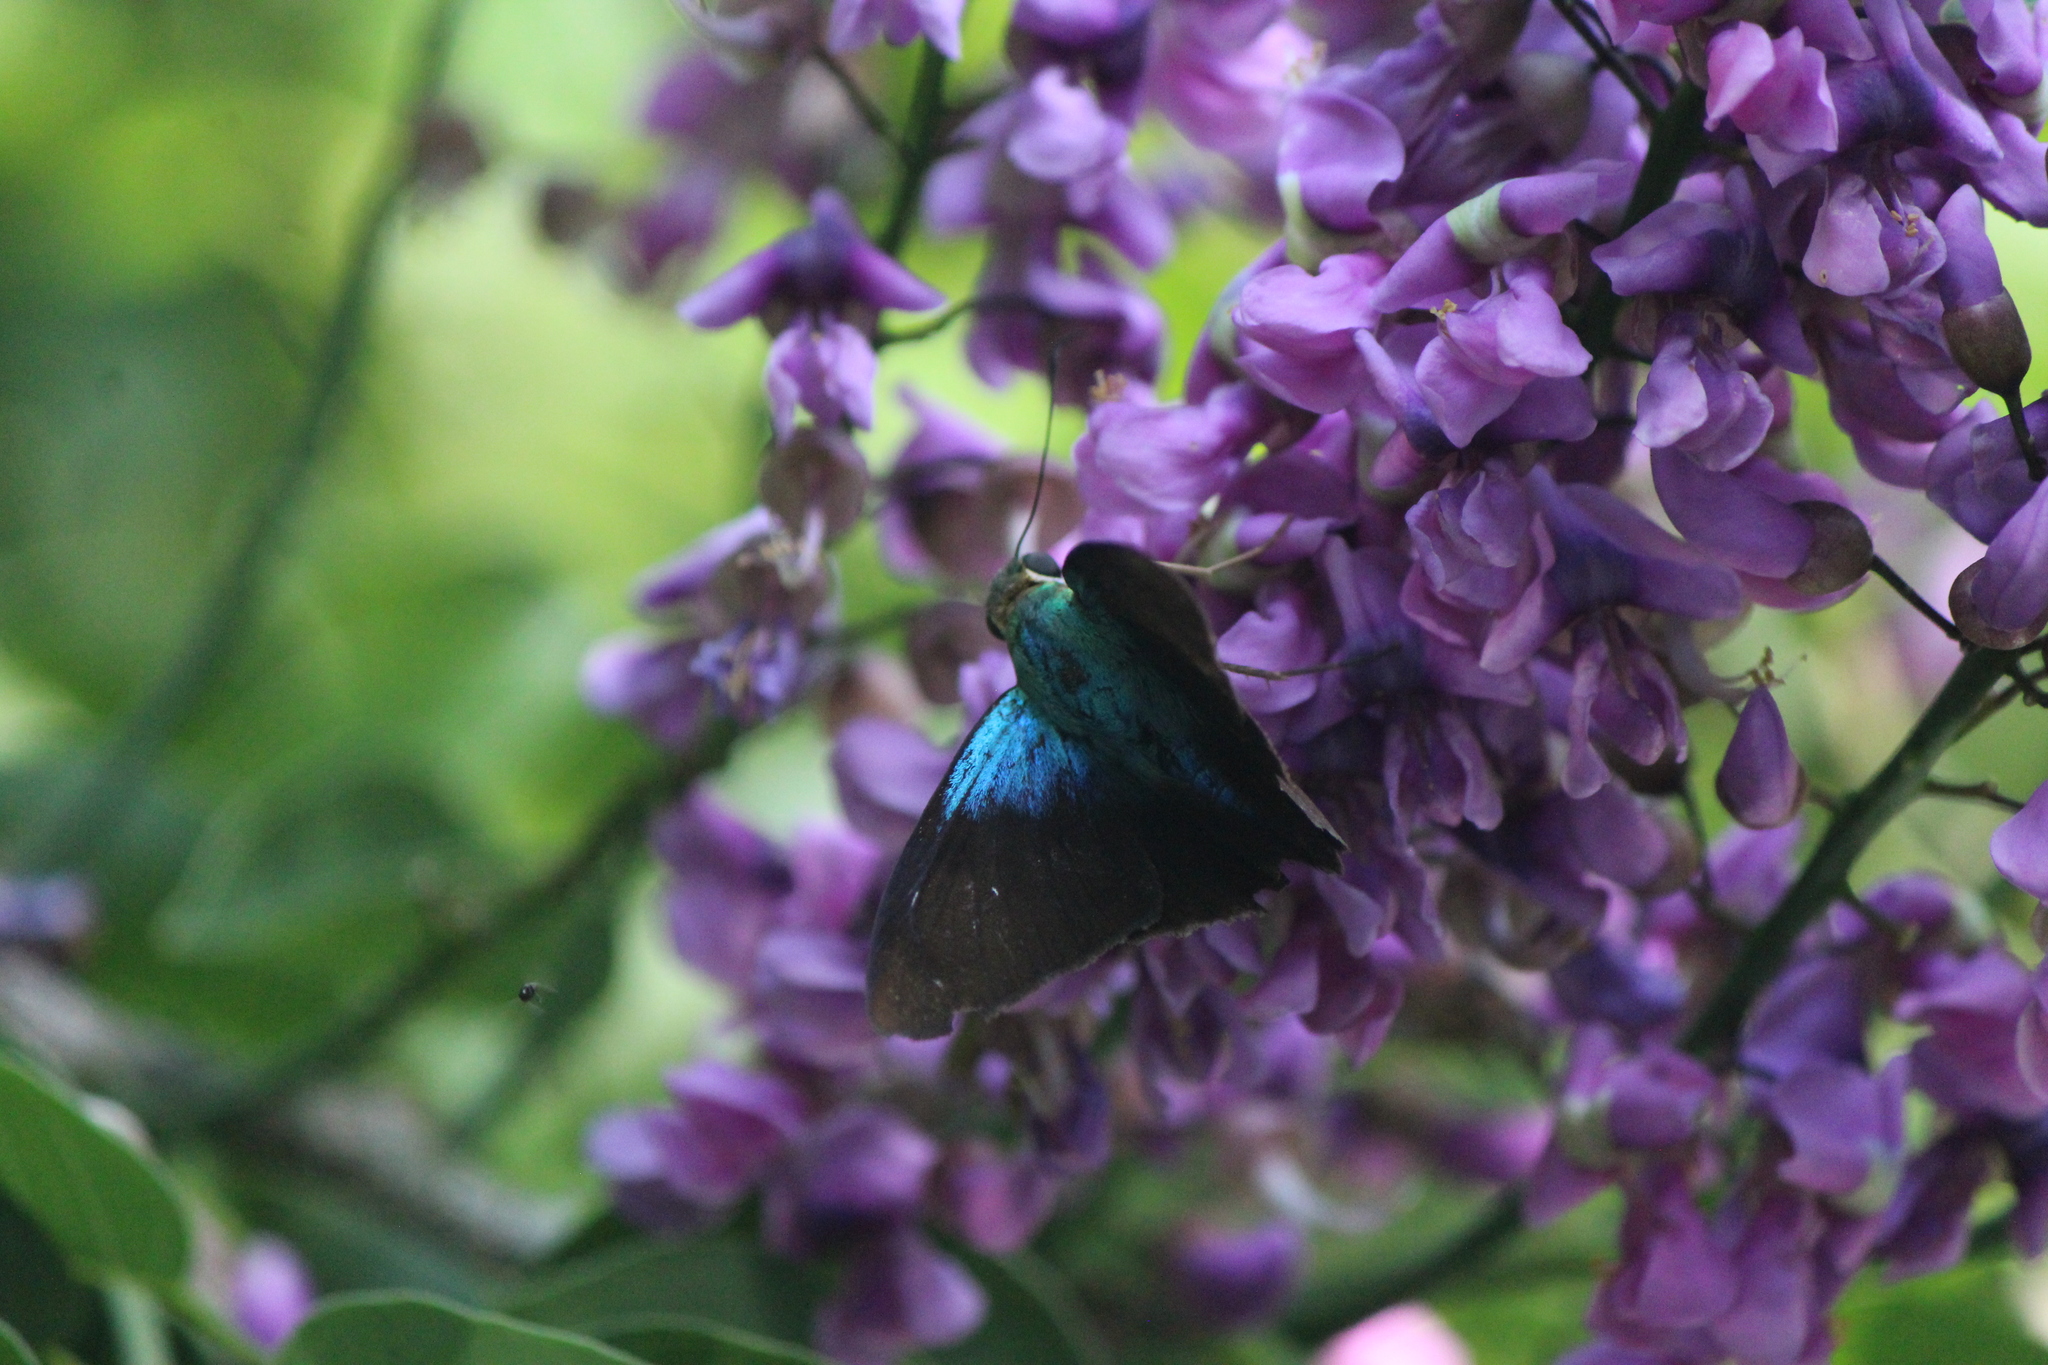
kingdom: Animalia
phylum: Arthropoda
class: Insecta
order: Lepidoptera
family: Hesperiidae
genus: Astraptes
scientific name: Astraptes alector
